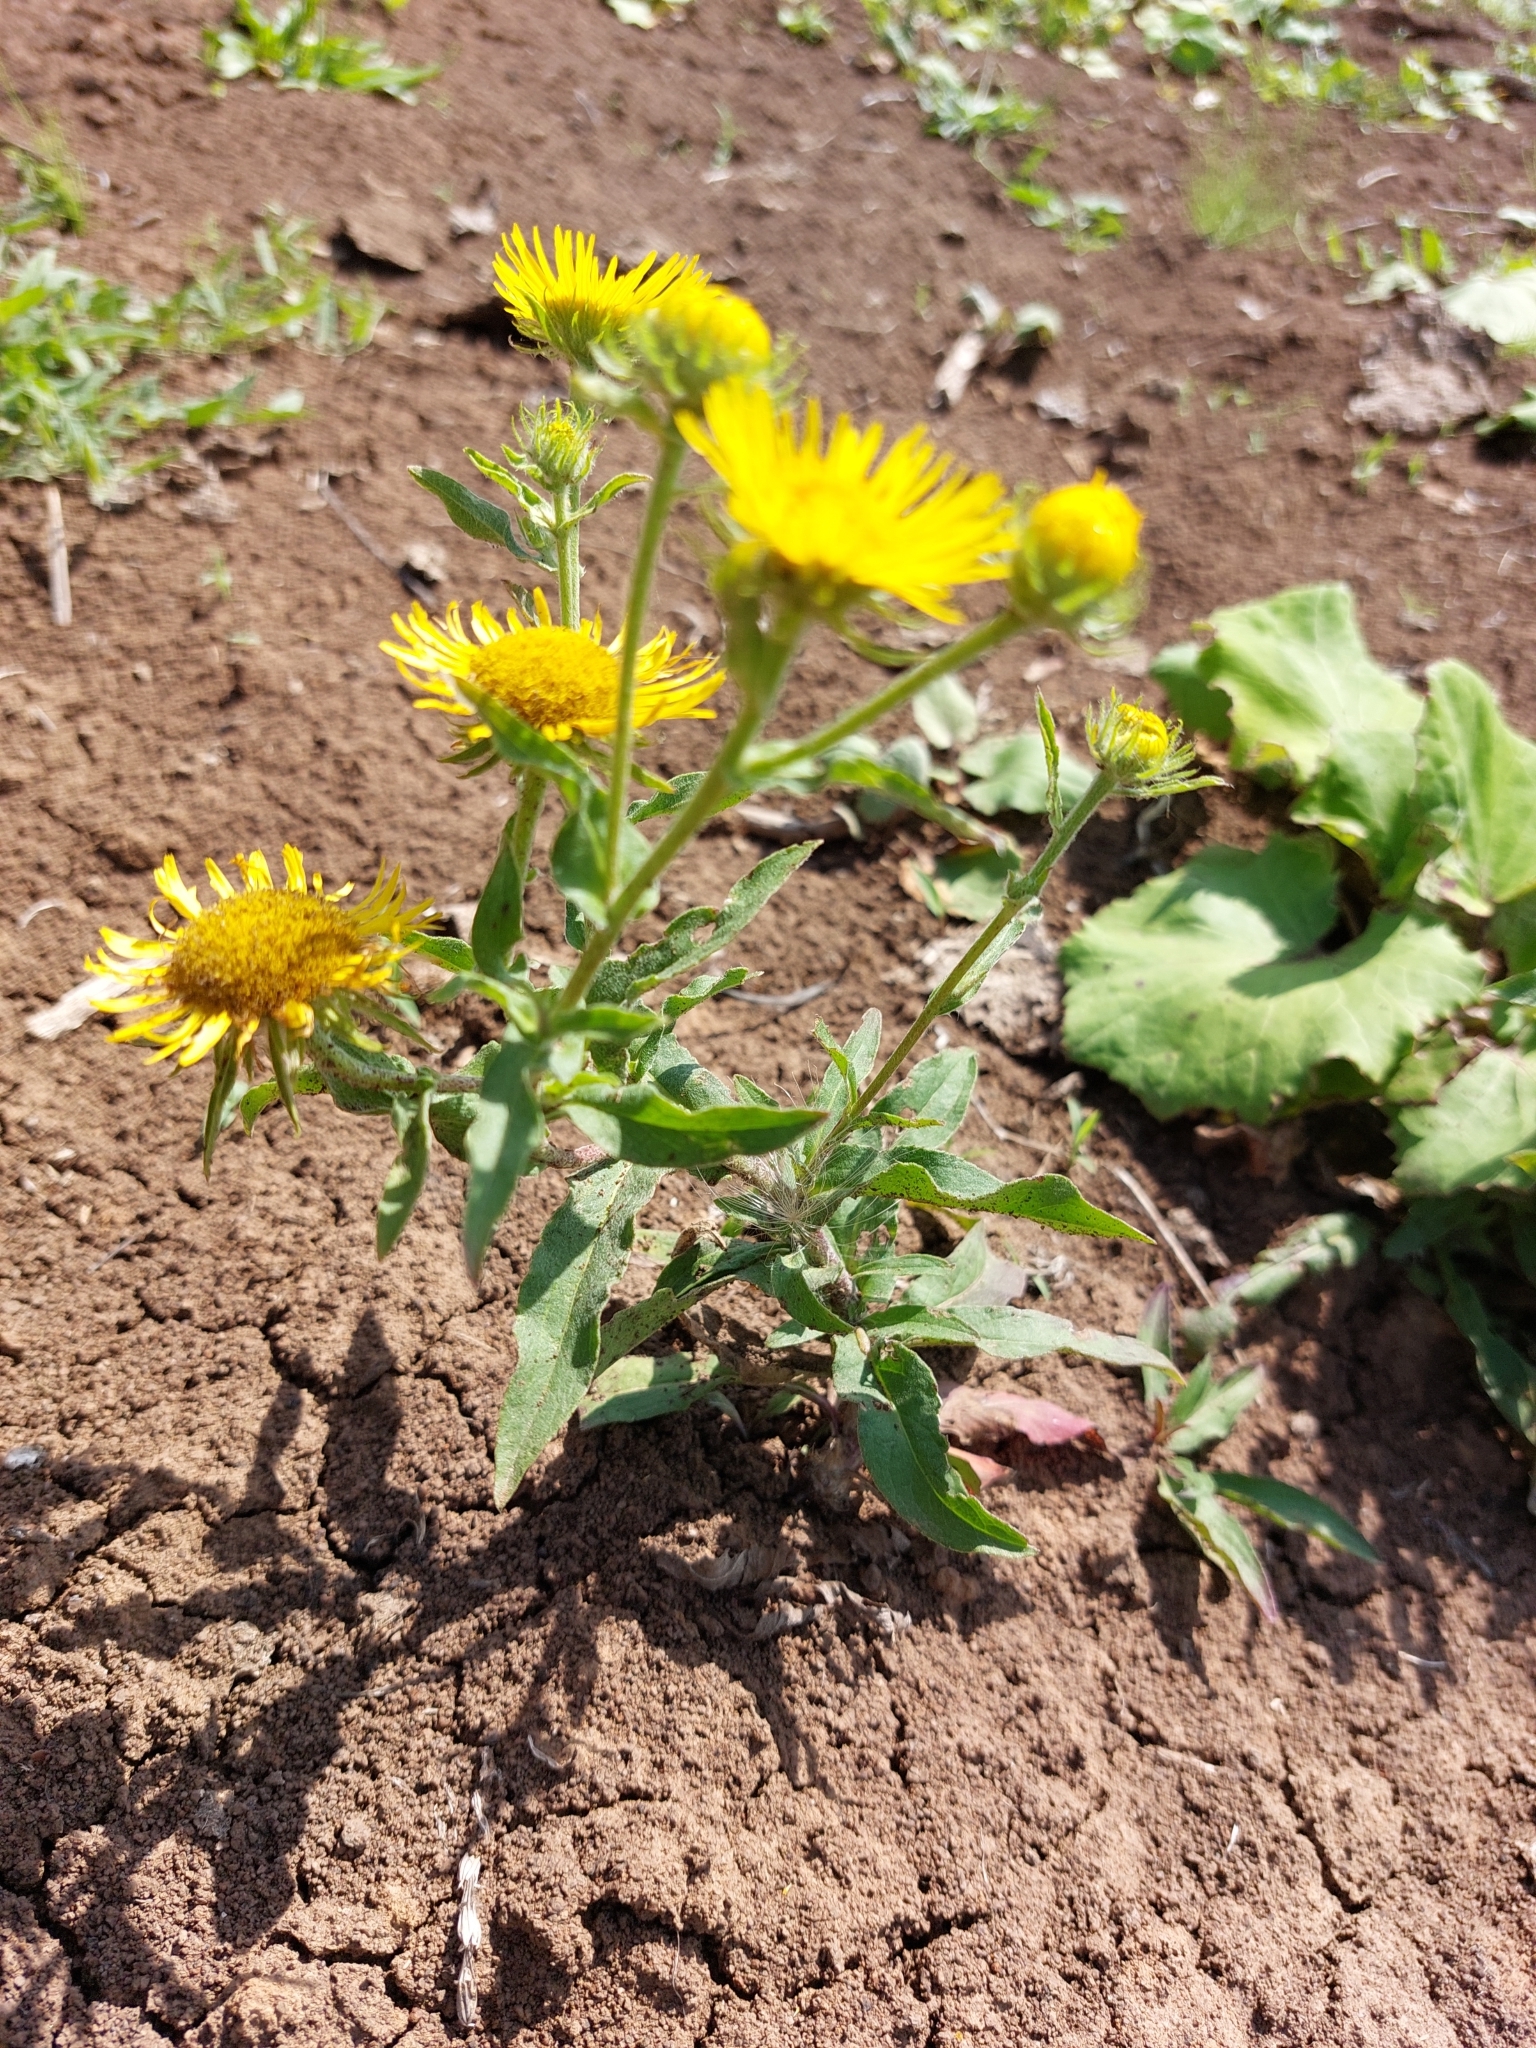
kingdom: Plantae
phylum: Tracheophyta
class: Magnoliopsida
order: Asterales
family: Asteraceae
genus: Pentanema
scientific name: Pentanema britannicum
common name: British elecampane
